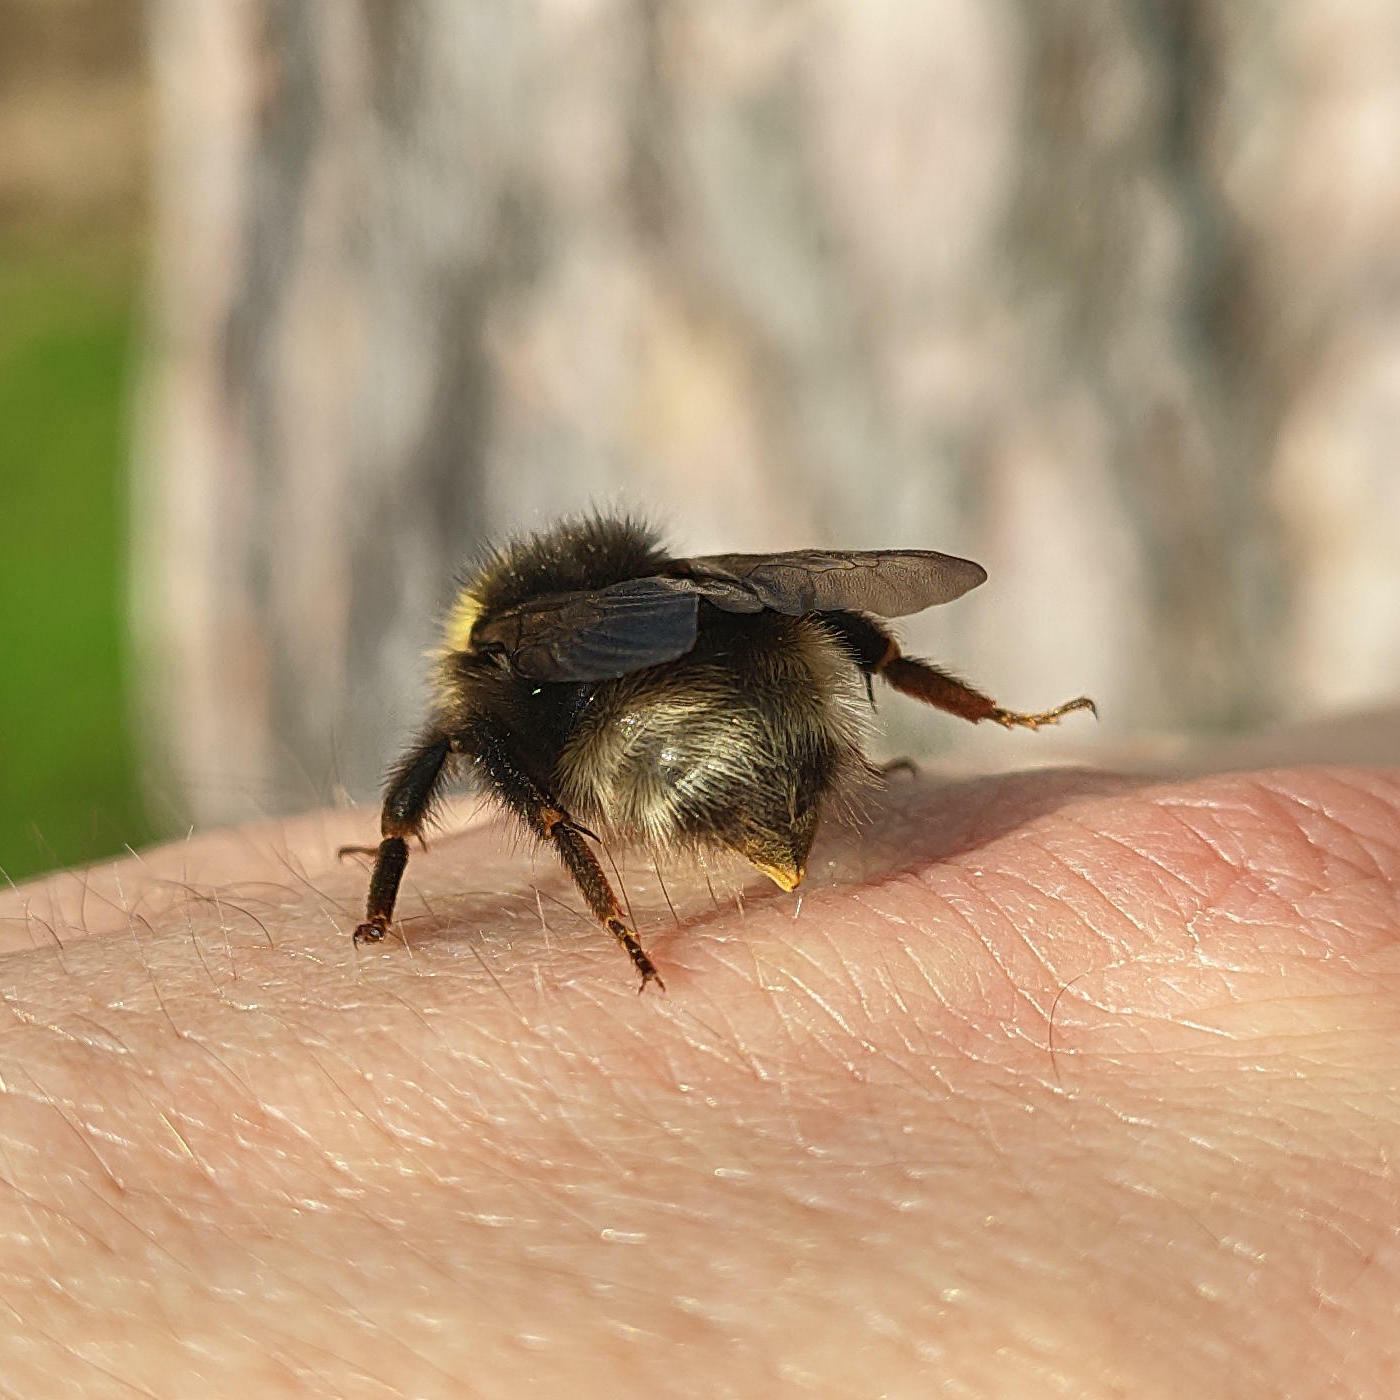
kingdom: Animalia
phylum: Arthropoda
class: Insecta
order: Hymenoptera
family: Apidae
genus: Bombus
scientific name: Bombus
